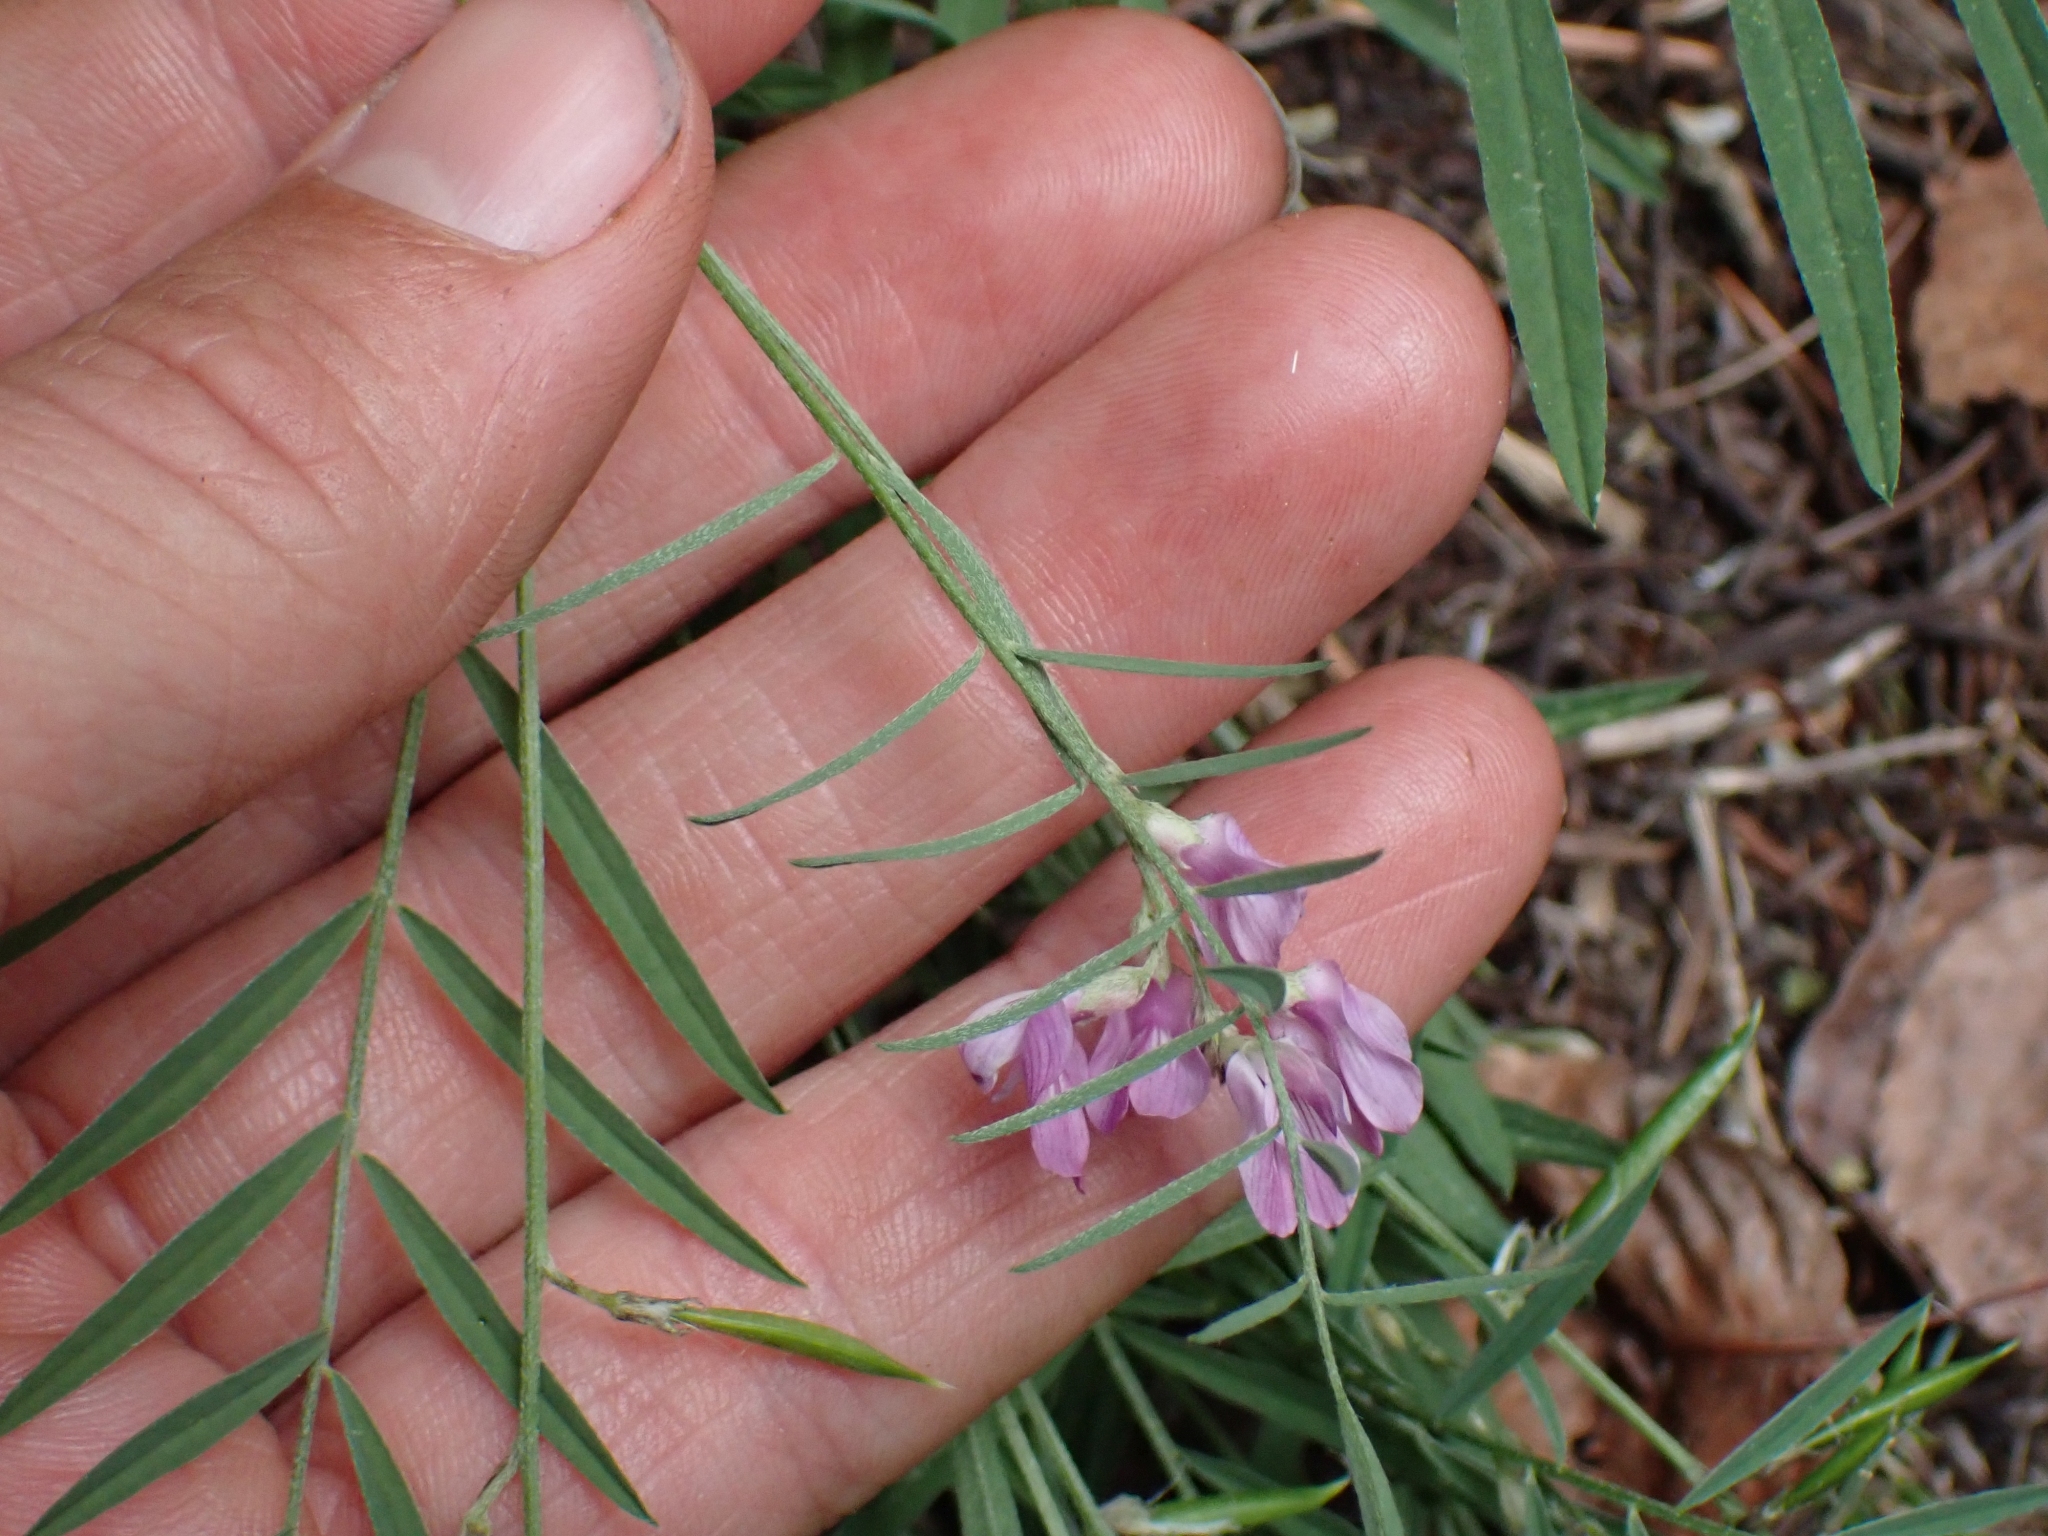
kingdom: Plantae
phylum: Tracheophyta
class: Magnoliopsida
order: Fabales
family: Fabaceae
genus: Astragalus
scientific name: Astragalus miser
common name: Timber milkvetch
